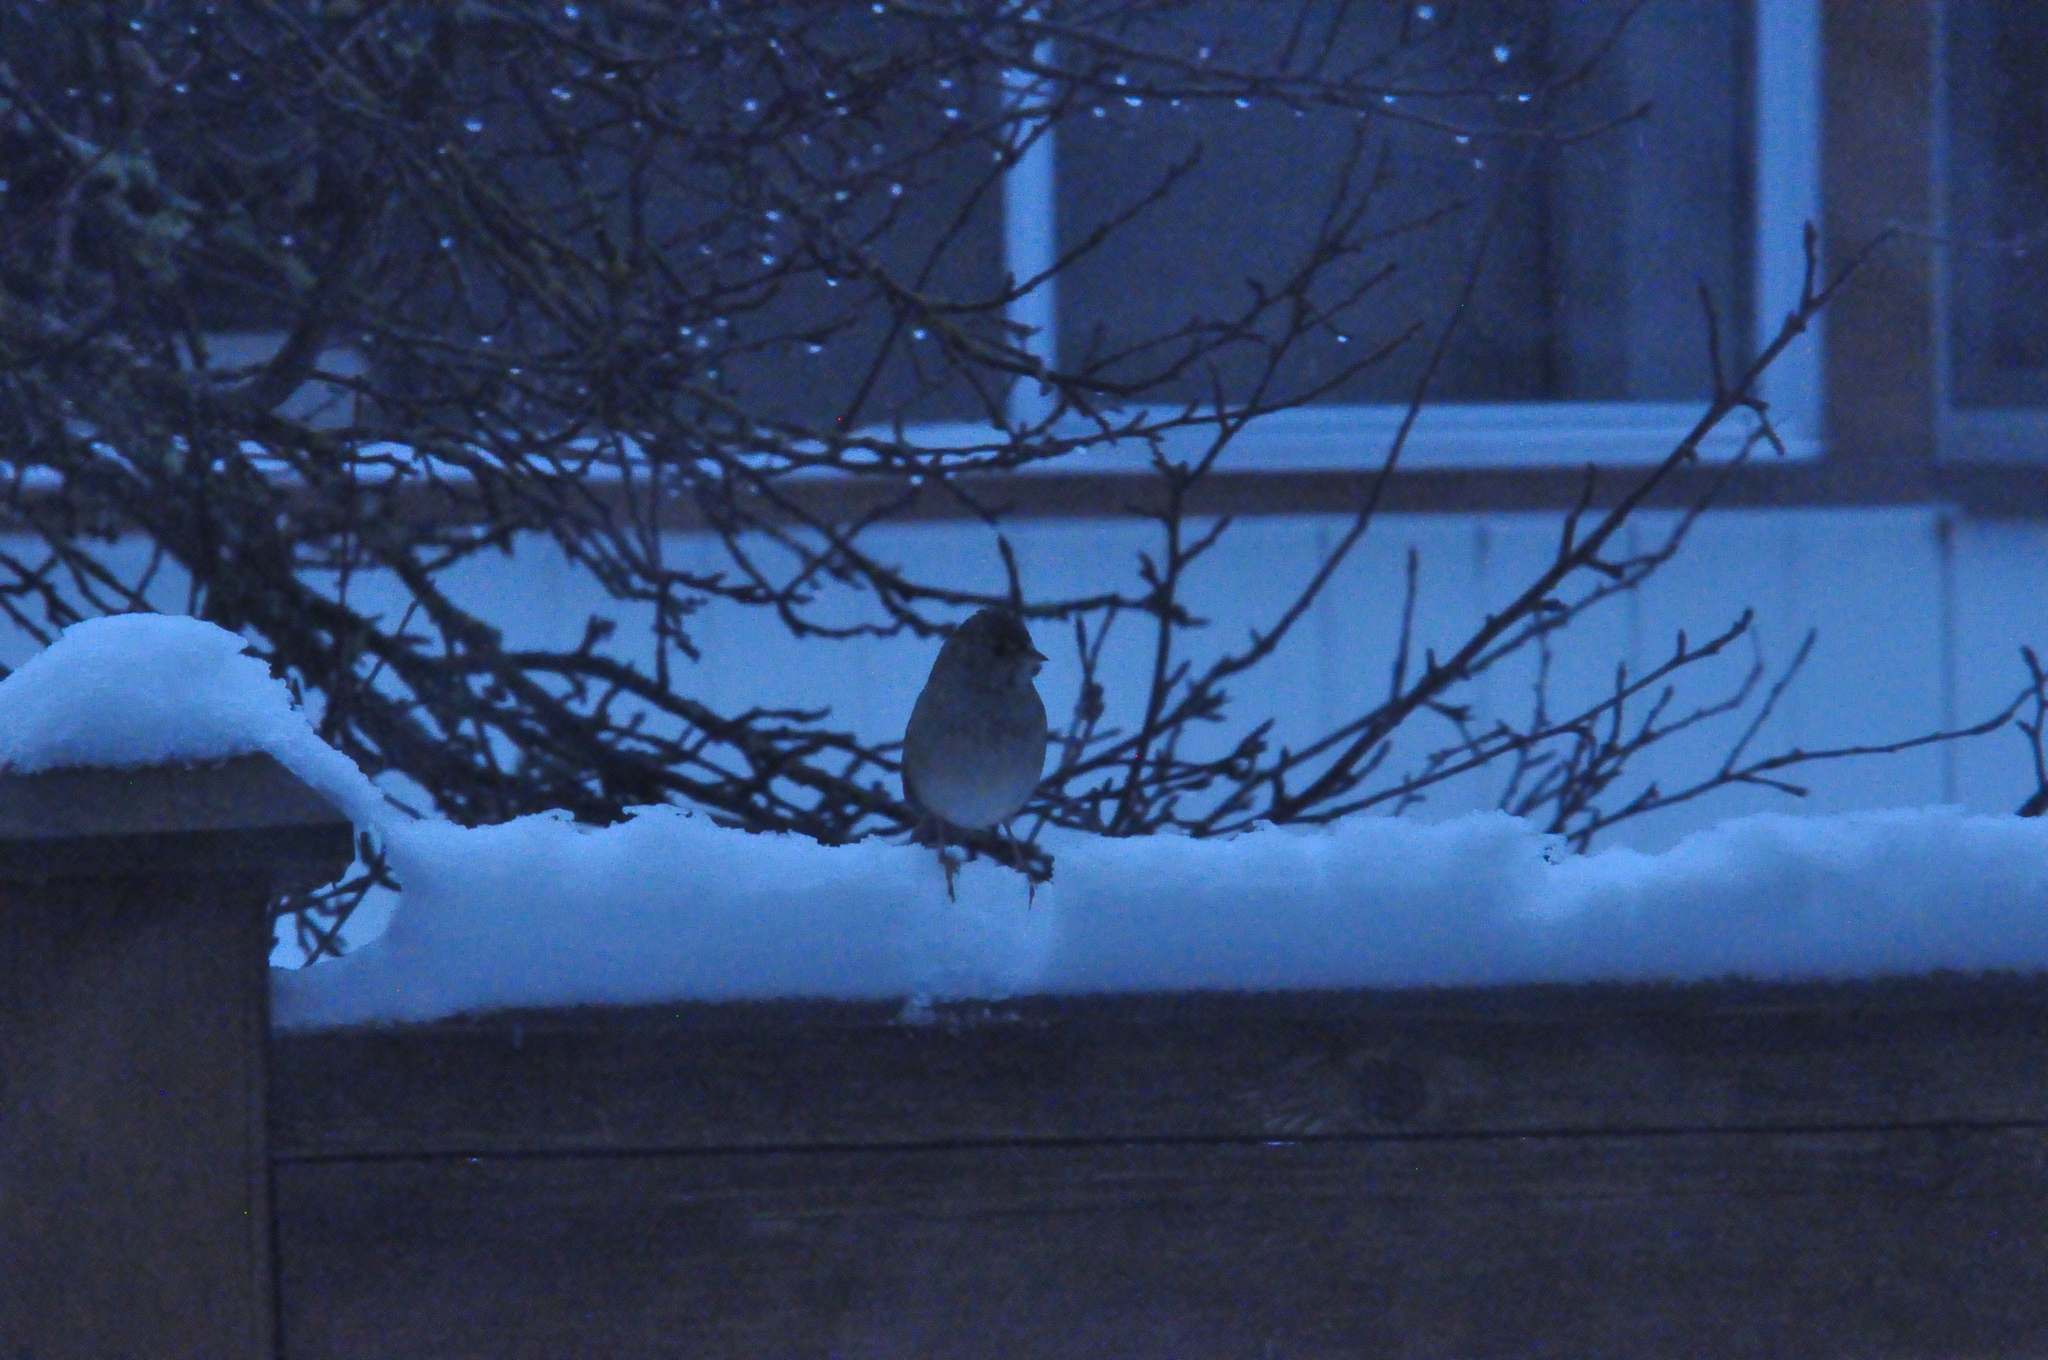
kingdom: Animalia
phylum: Chordata
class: Aves
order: Passeriformes
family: Passerellidae
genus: Zonotrichia
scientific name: Zonotrichia atricapilla
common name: Golden-crowned sparrow
